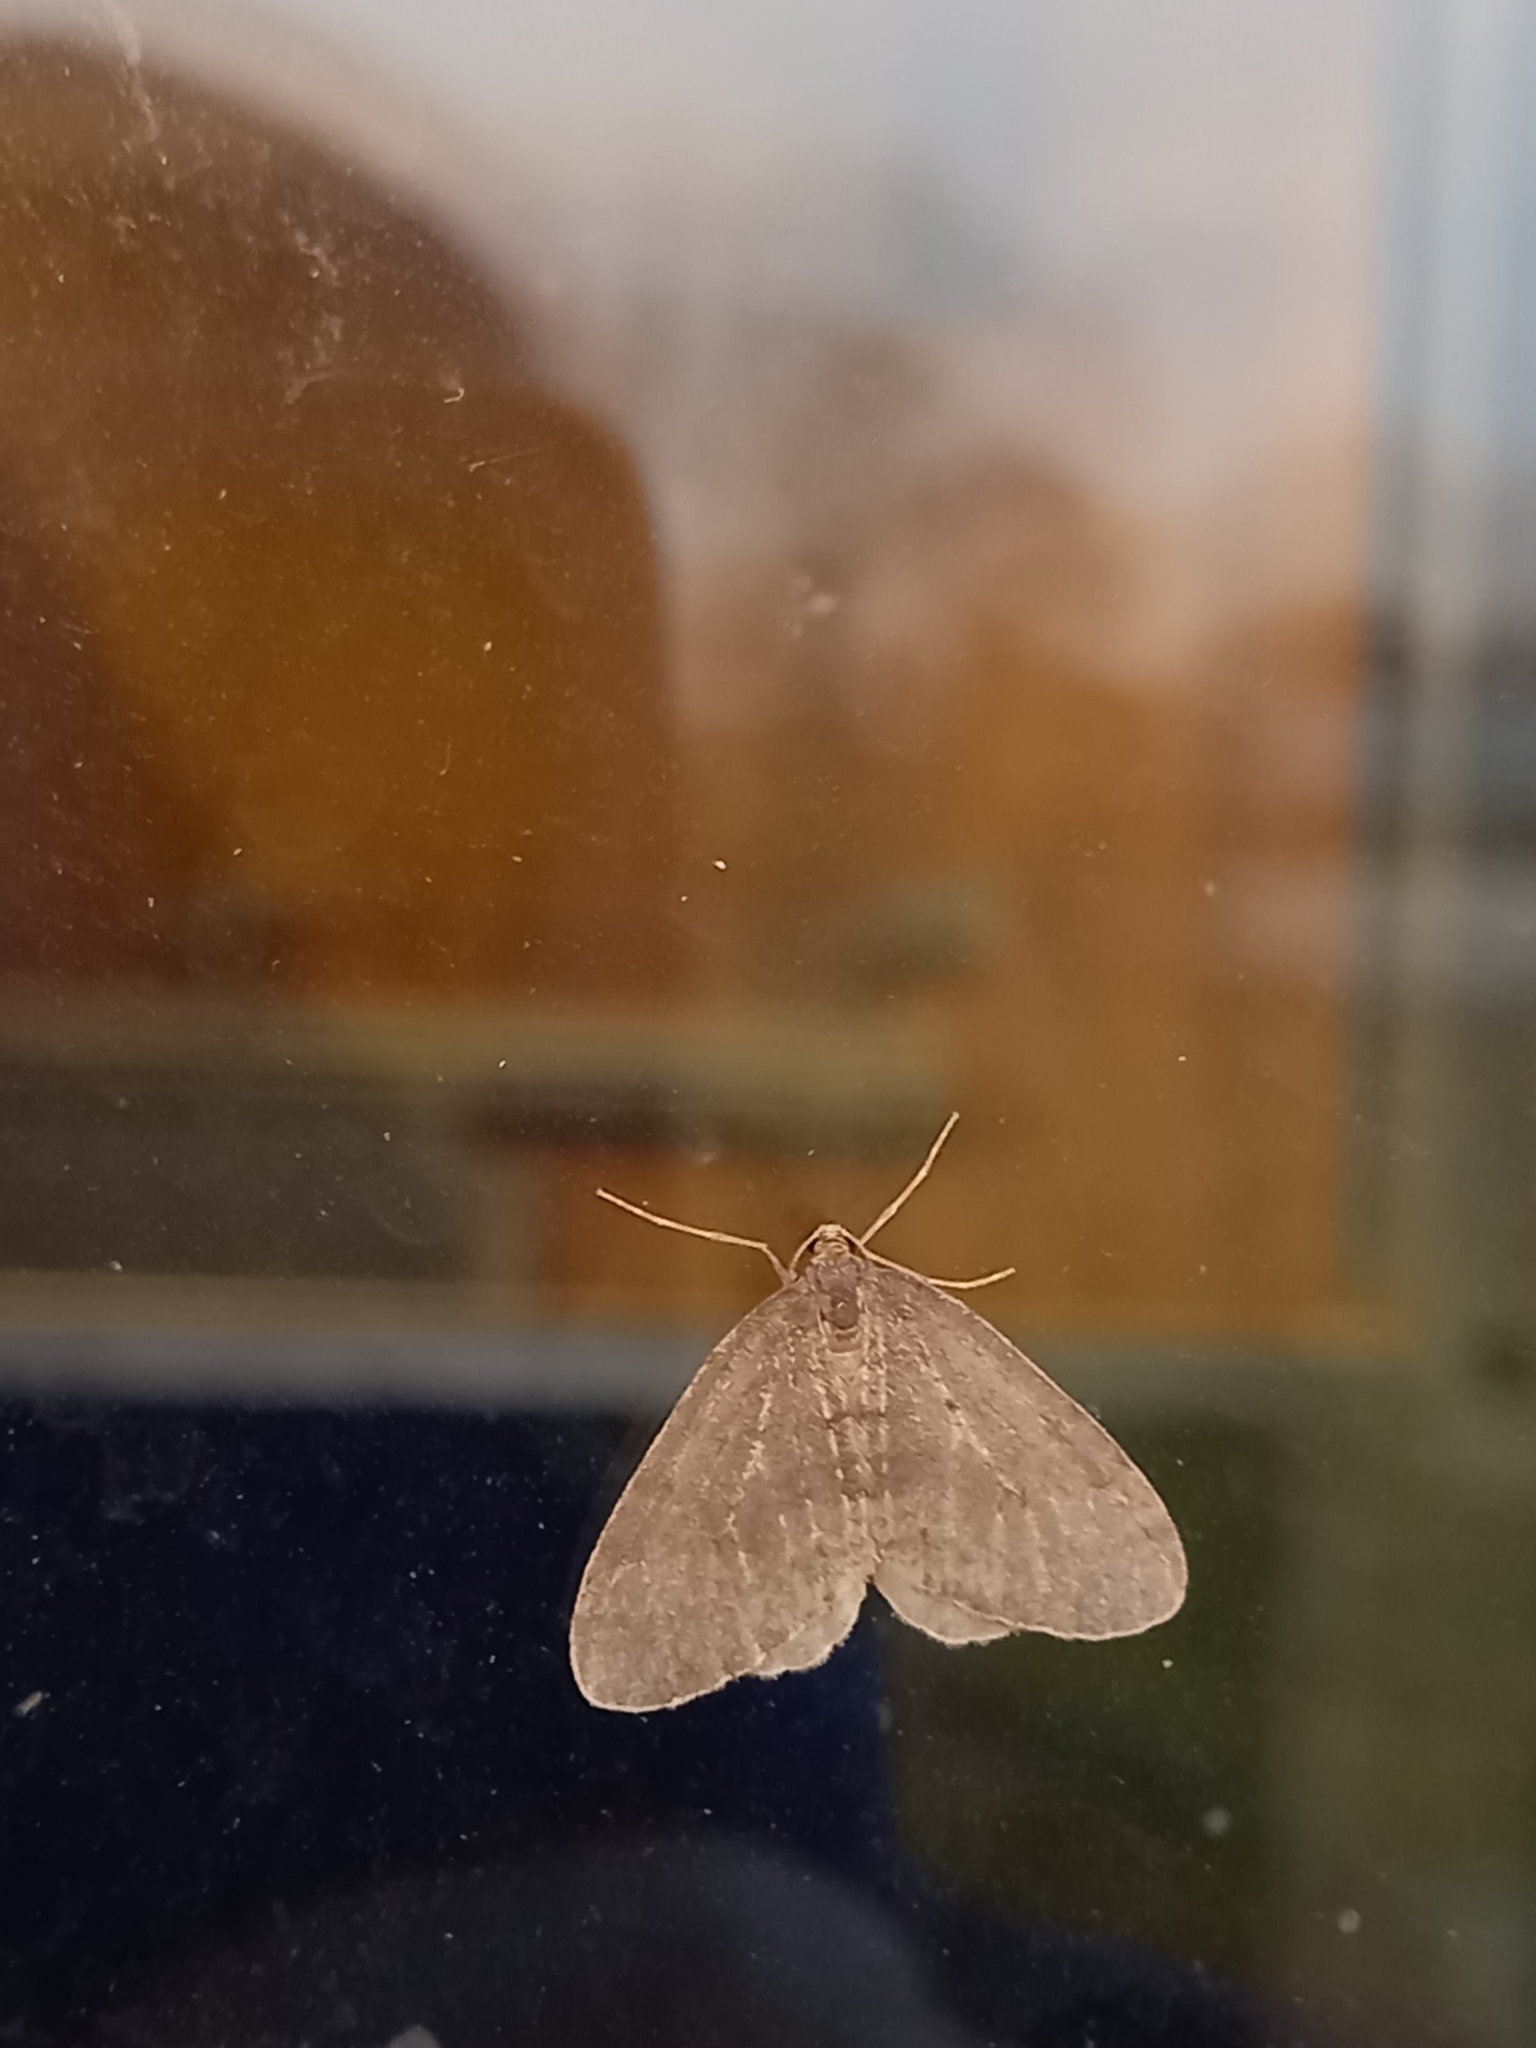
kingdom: Animalia
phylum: Arthropoda
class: Insecta
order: Lepidoptera
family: Geometridae
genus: Operophtera
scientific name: Operophtera brumata
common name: Winter moth
